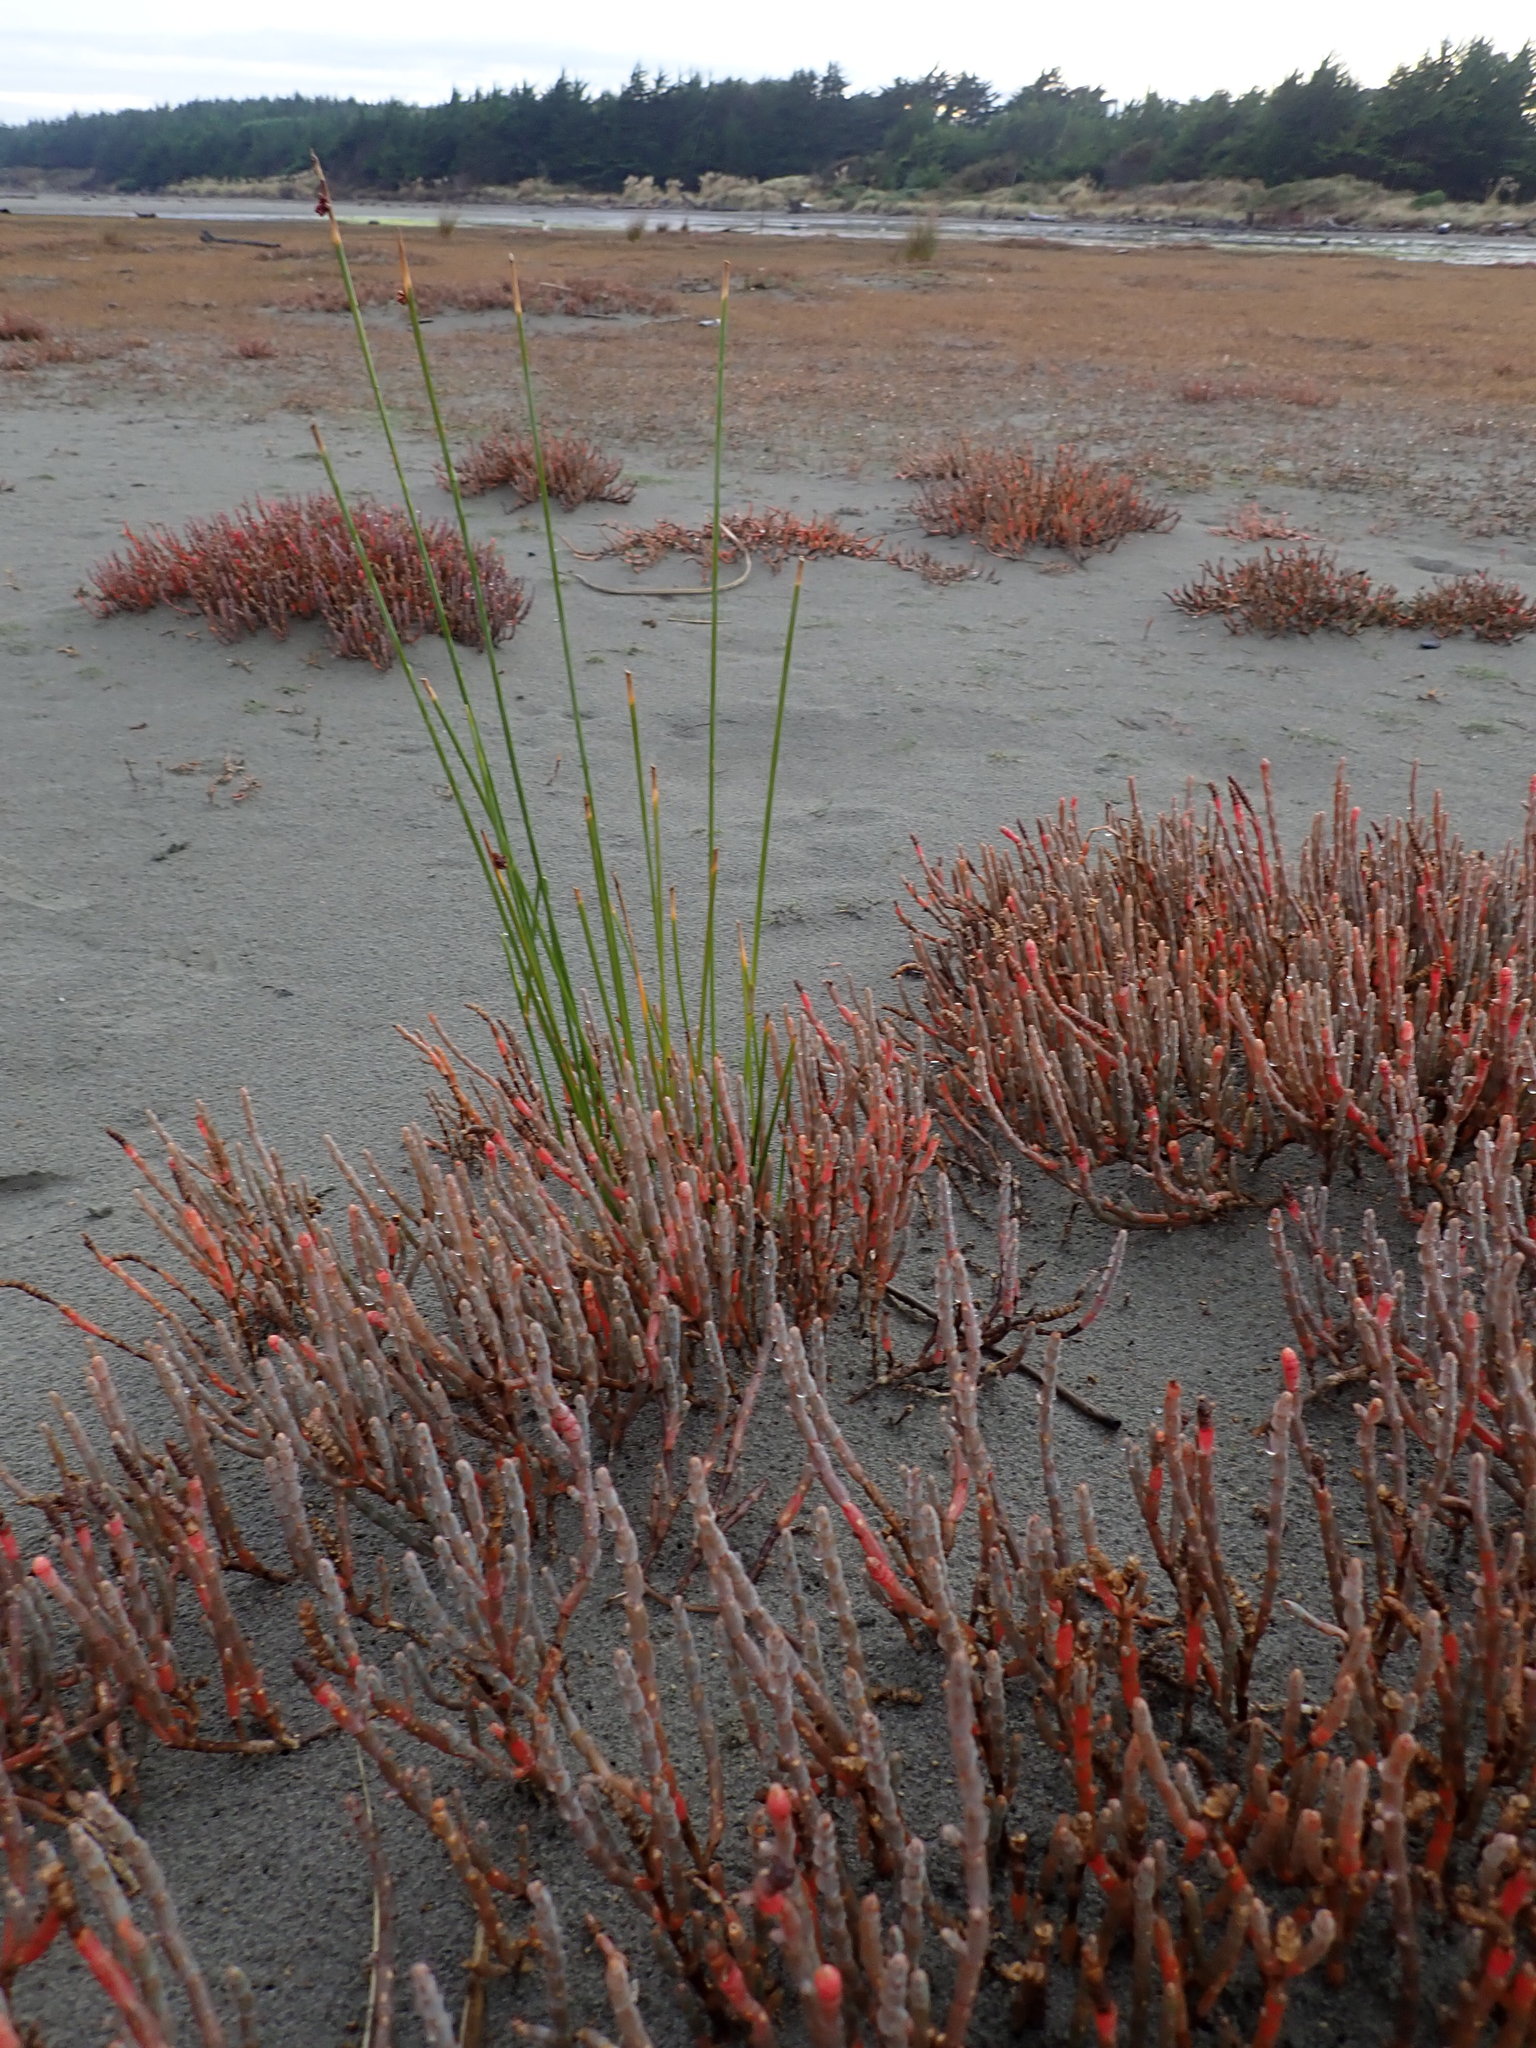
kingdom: Plantae
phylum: Tracheophyta
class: Liliopsida
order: Poales
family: Cyperaceae
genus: Ficinia
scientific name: Ficinia nodosa
